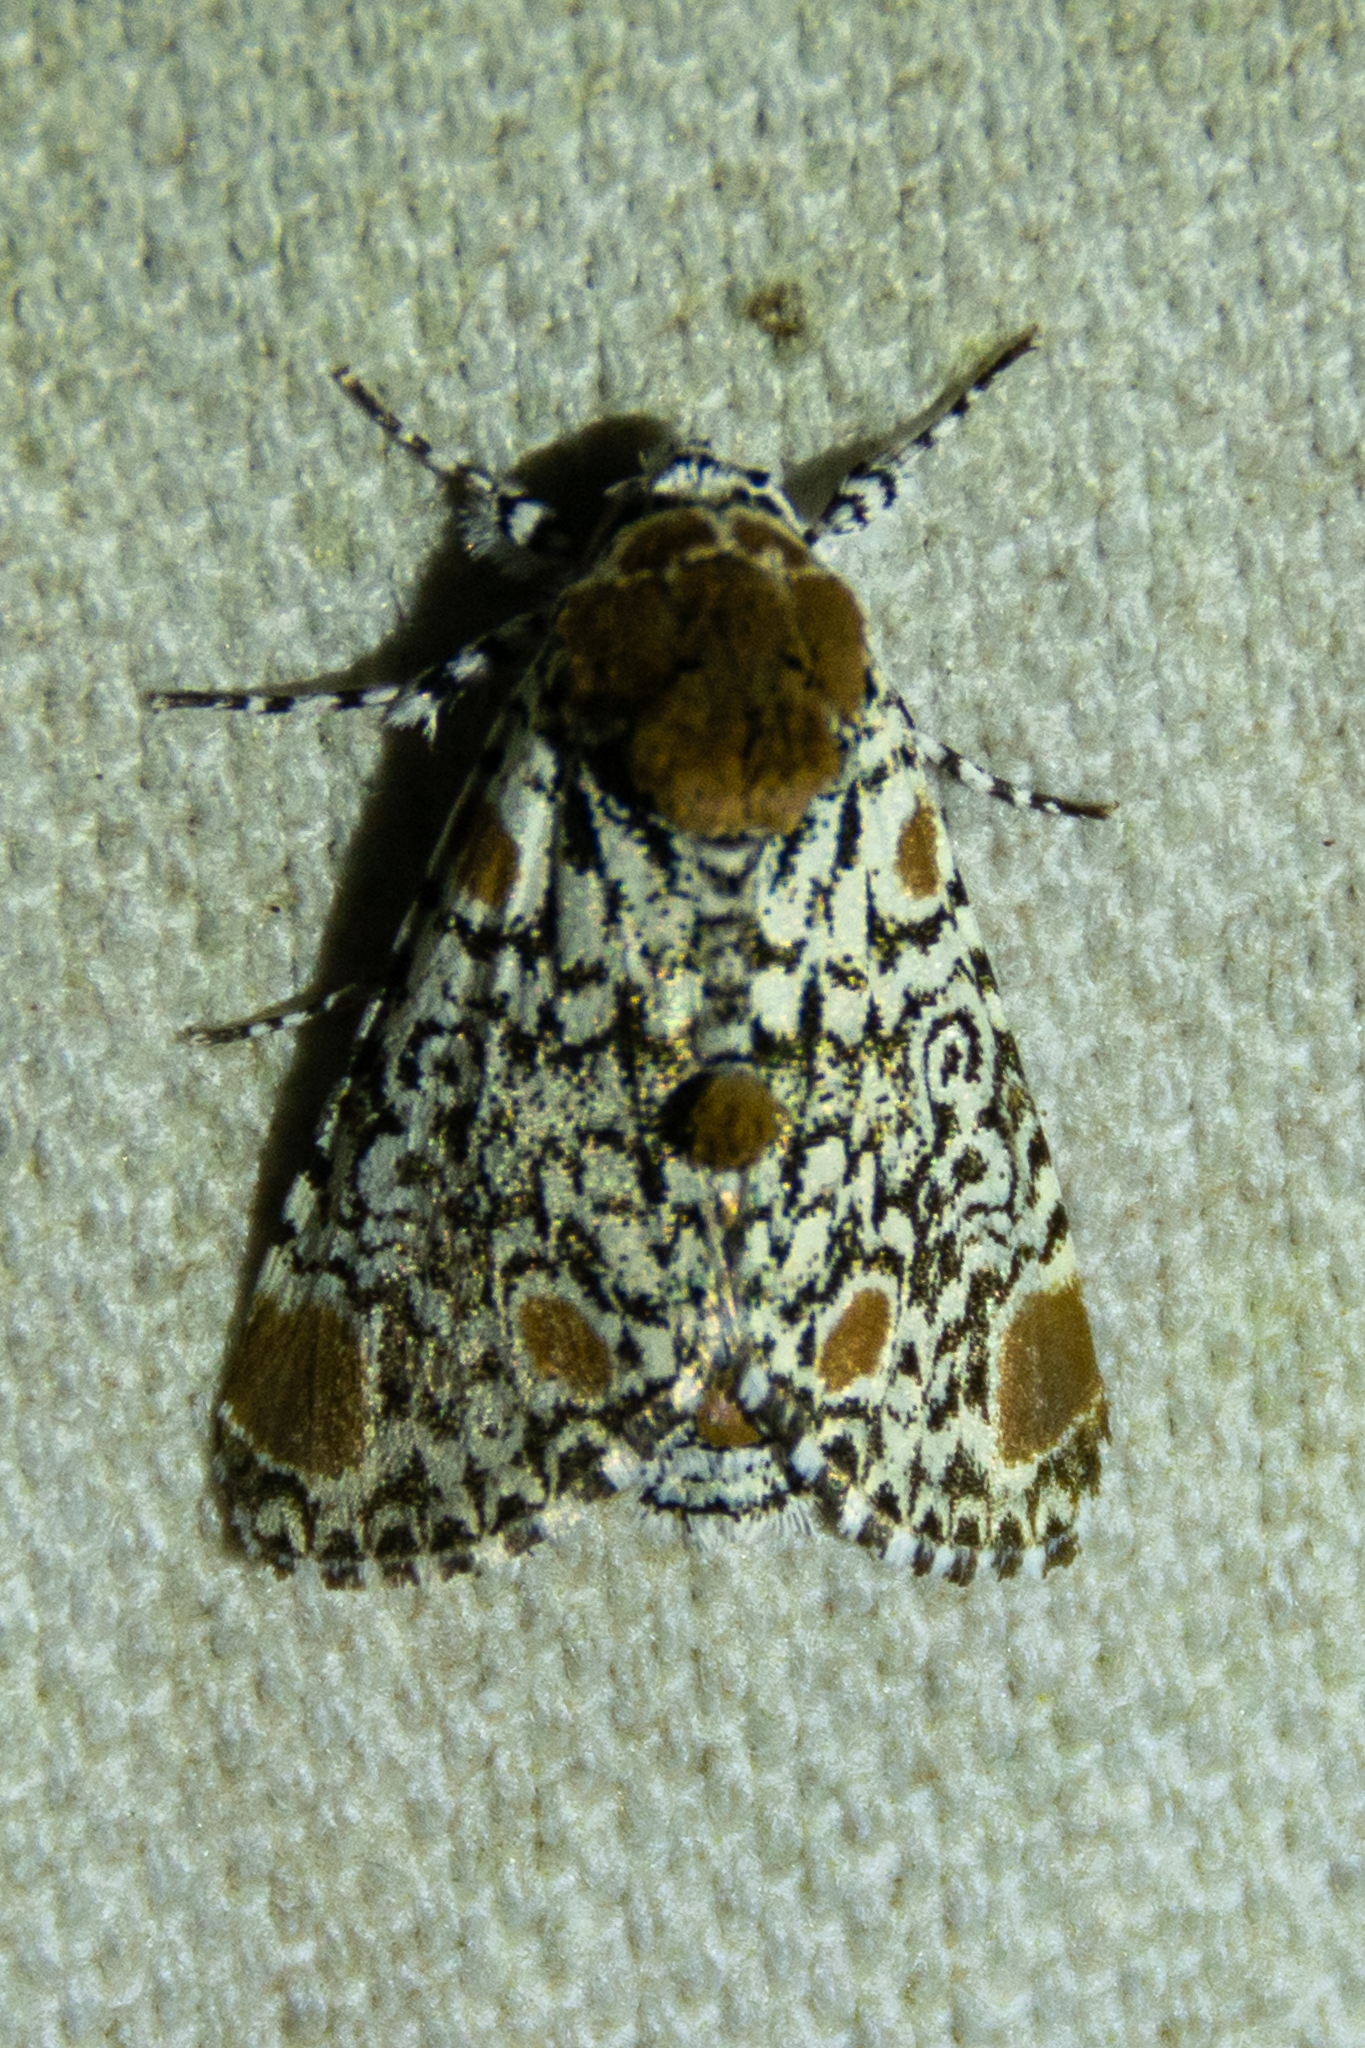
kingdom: Animalia
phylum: Arthropoda
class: Insecta
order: Lepidoptera
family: Noctuidae
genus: Harrisimemna
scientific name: Harrisimemna trisignata
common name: Harris threespot
